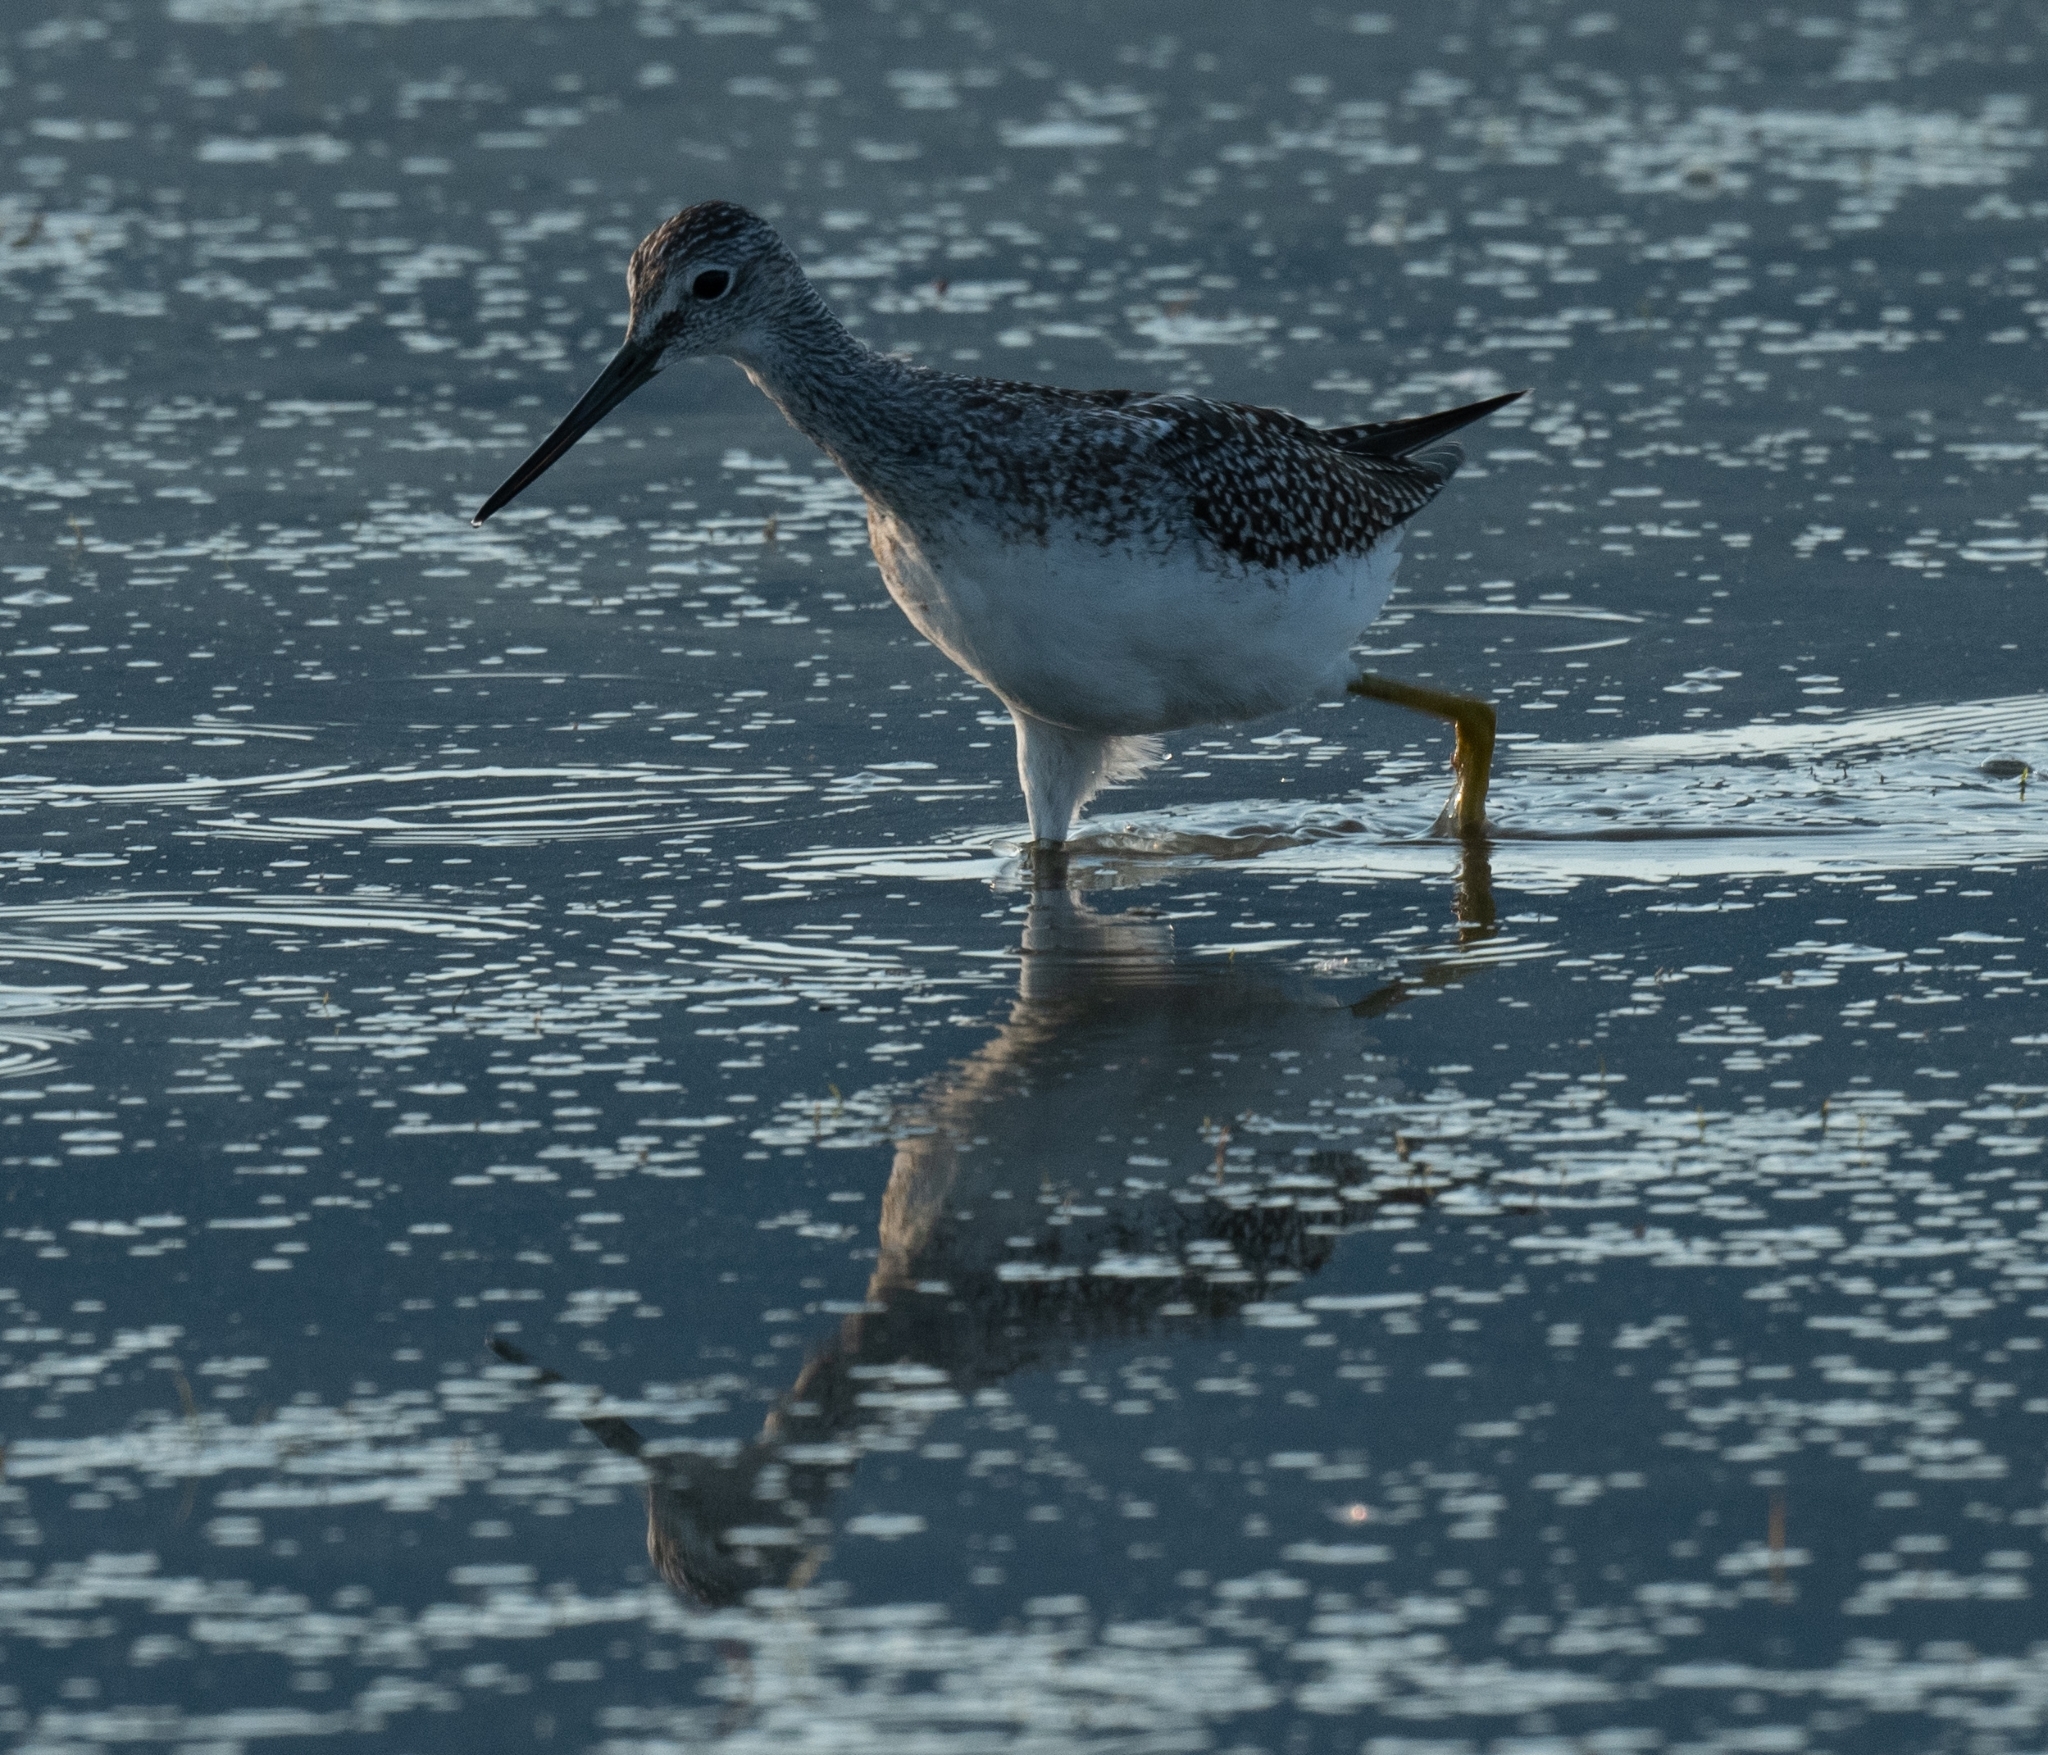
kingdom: Animalia
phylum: Chordata
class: Aves
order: Charadriiformes
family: Scolopacidae
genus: Tringa
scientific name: Tringa melanoleuca
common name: Greater yellowlegs
